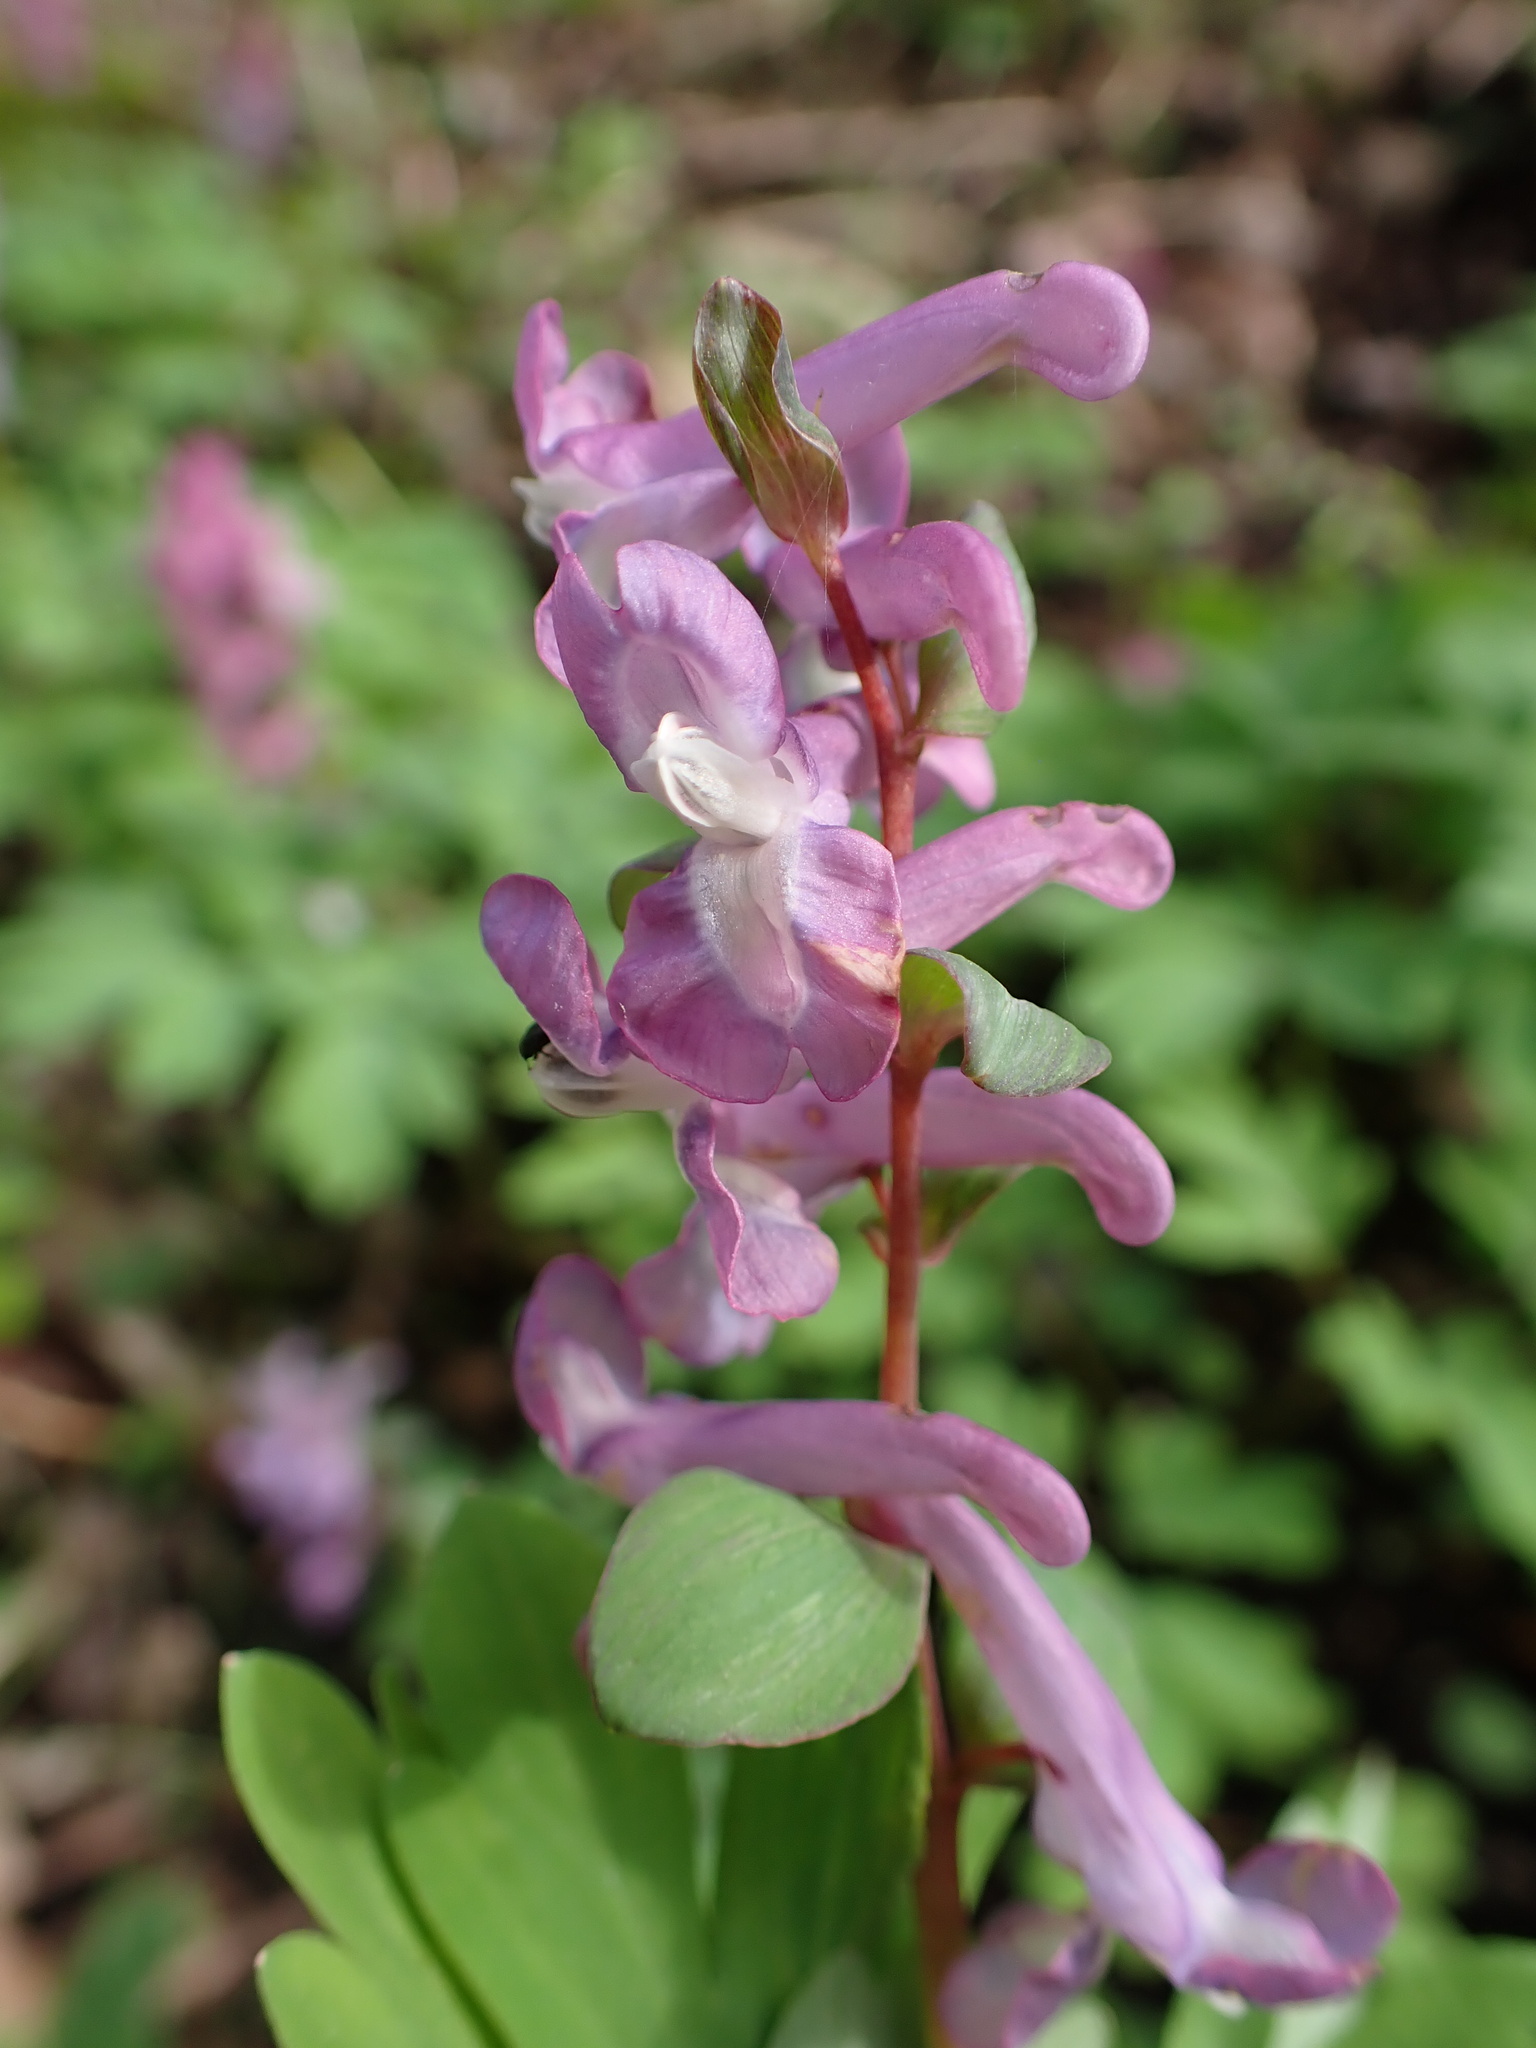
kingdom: Plantae
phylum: Tracheophyta
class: Magnoliopsida
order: Ranunculales
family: Papaveraceae
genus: Corydalis
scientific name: Corydalis cava
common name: Hollowroot
